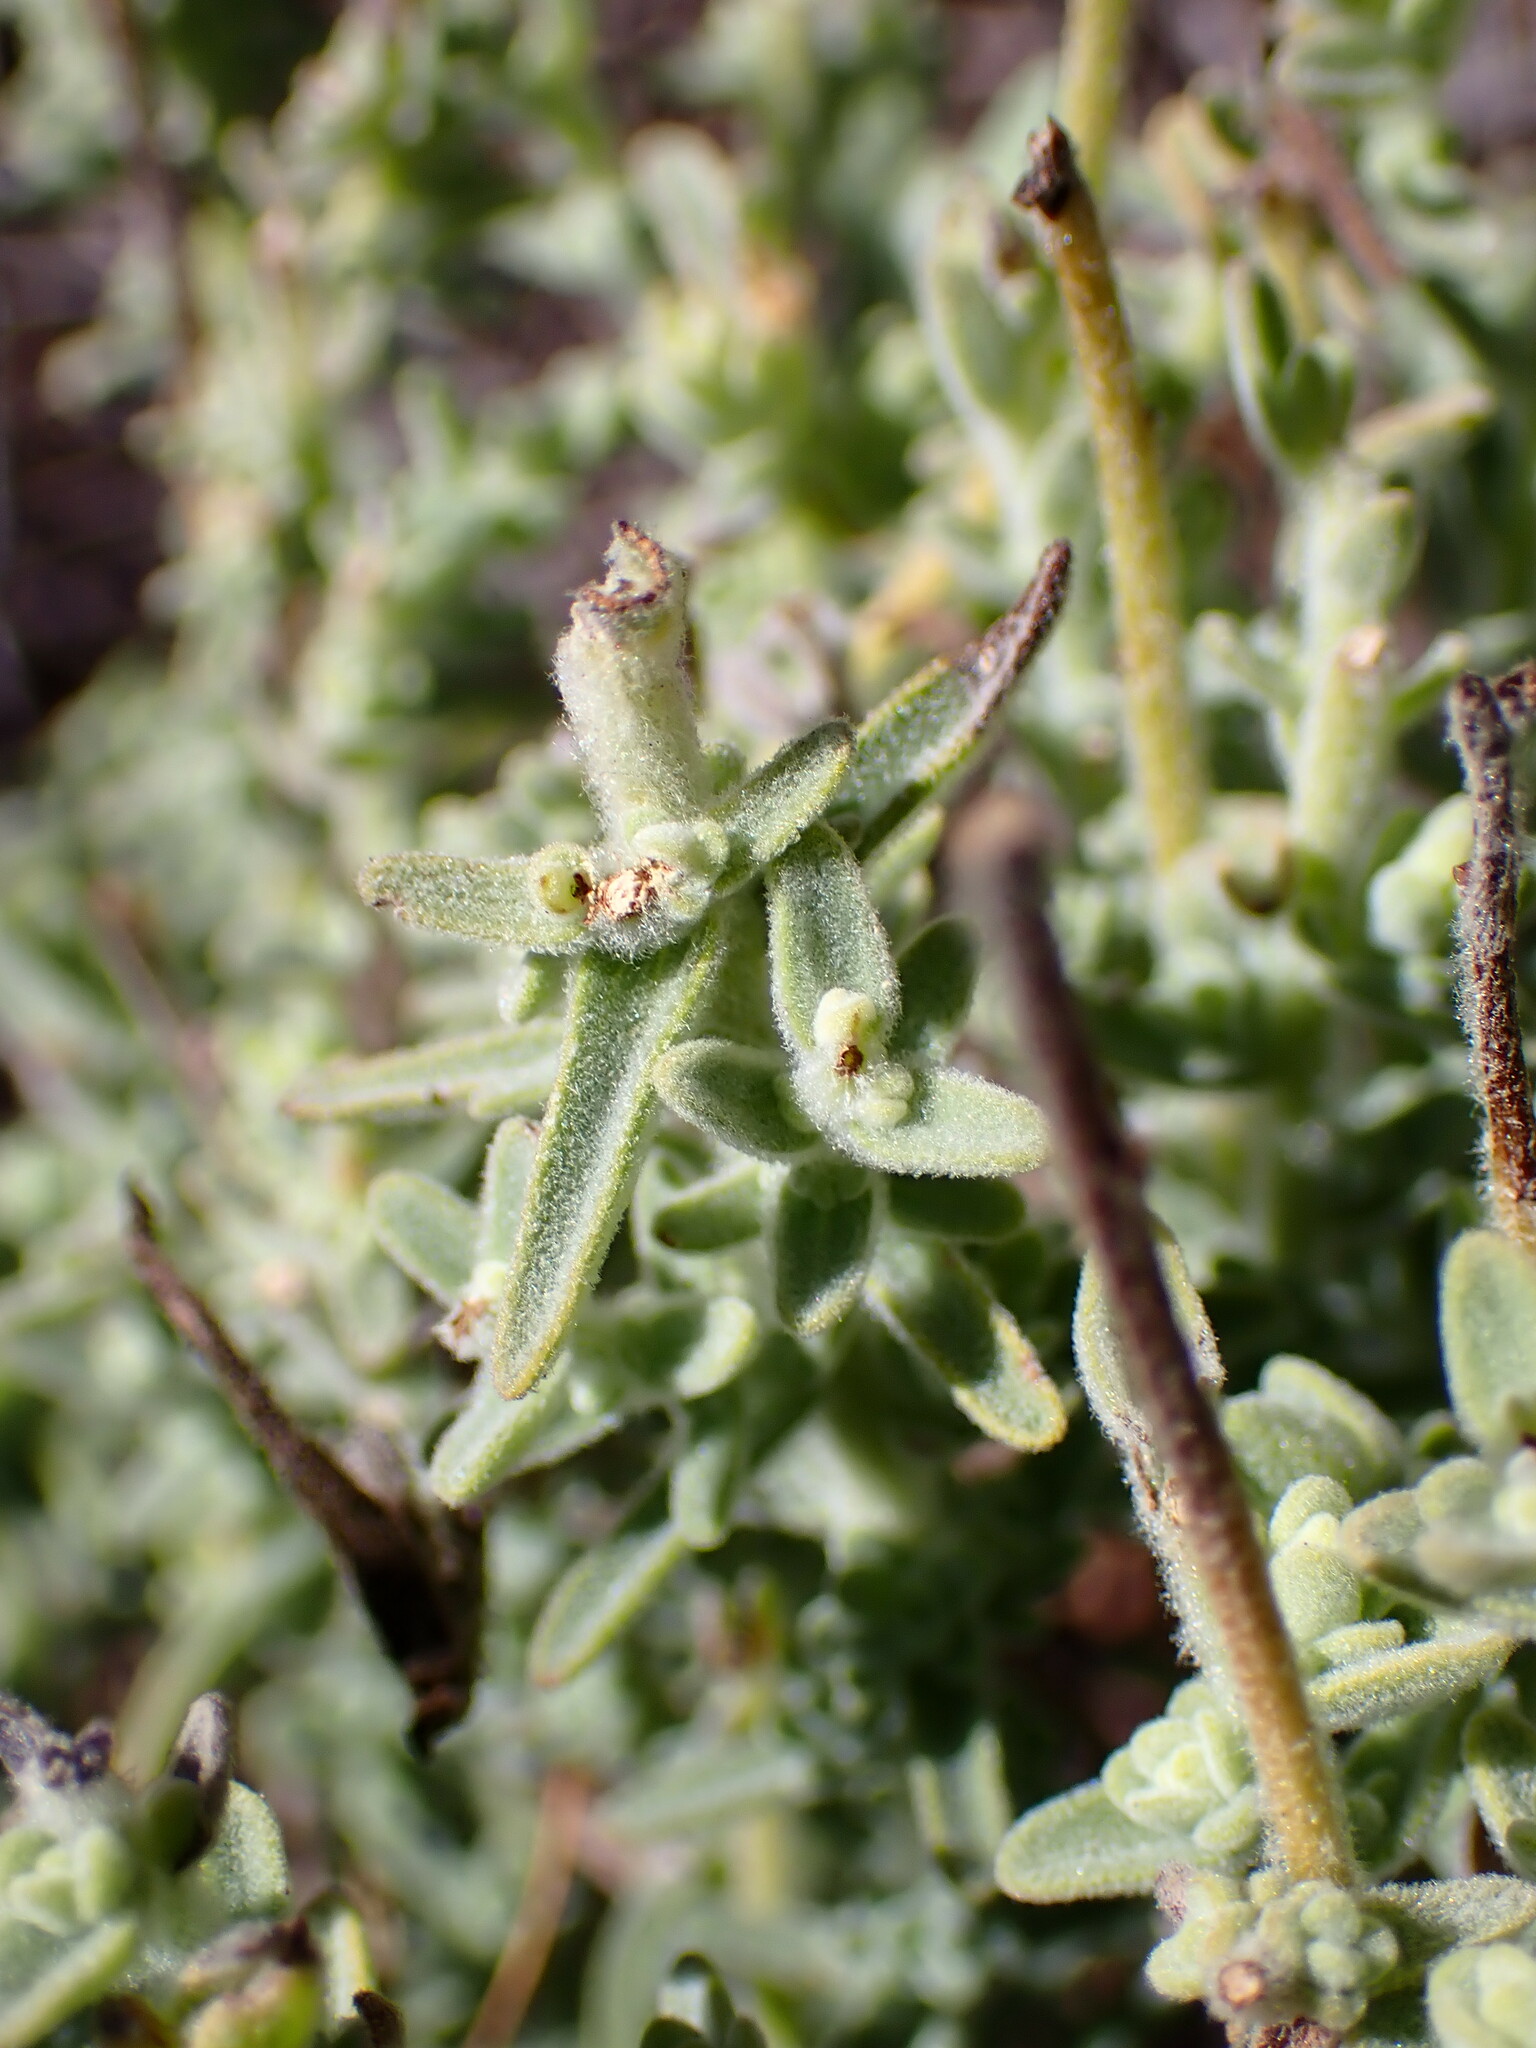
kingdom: Plantae
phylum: Tracheophyta
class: Magnoliopsida
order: Lamiales
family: Orobanchaceae
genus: Castilleja
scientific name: Castilleja foliolosa
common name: Woolly indian paintbrush
